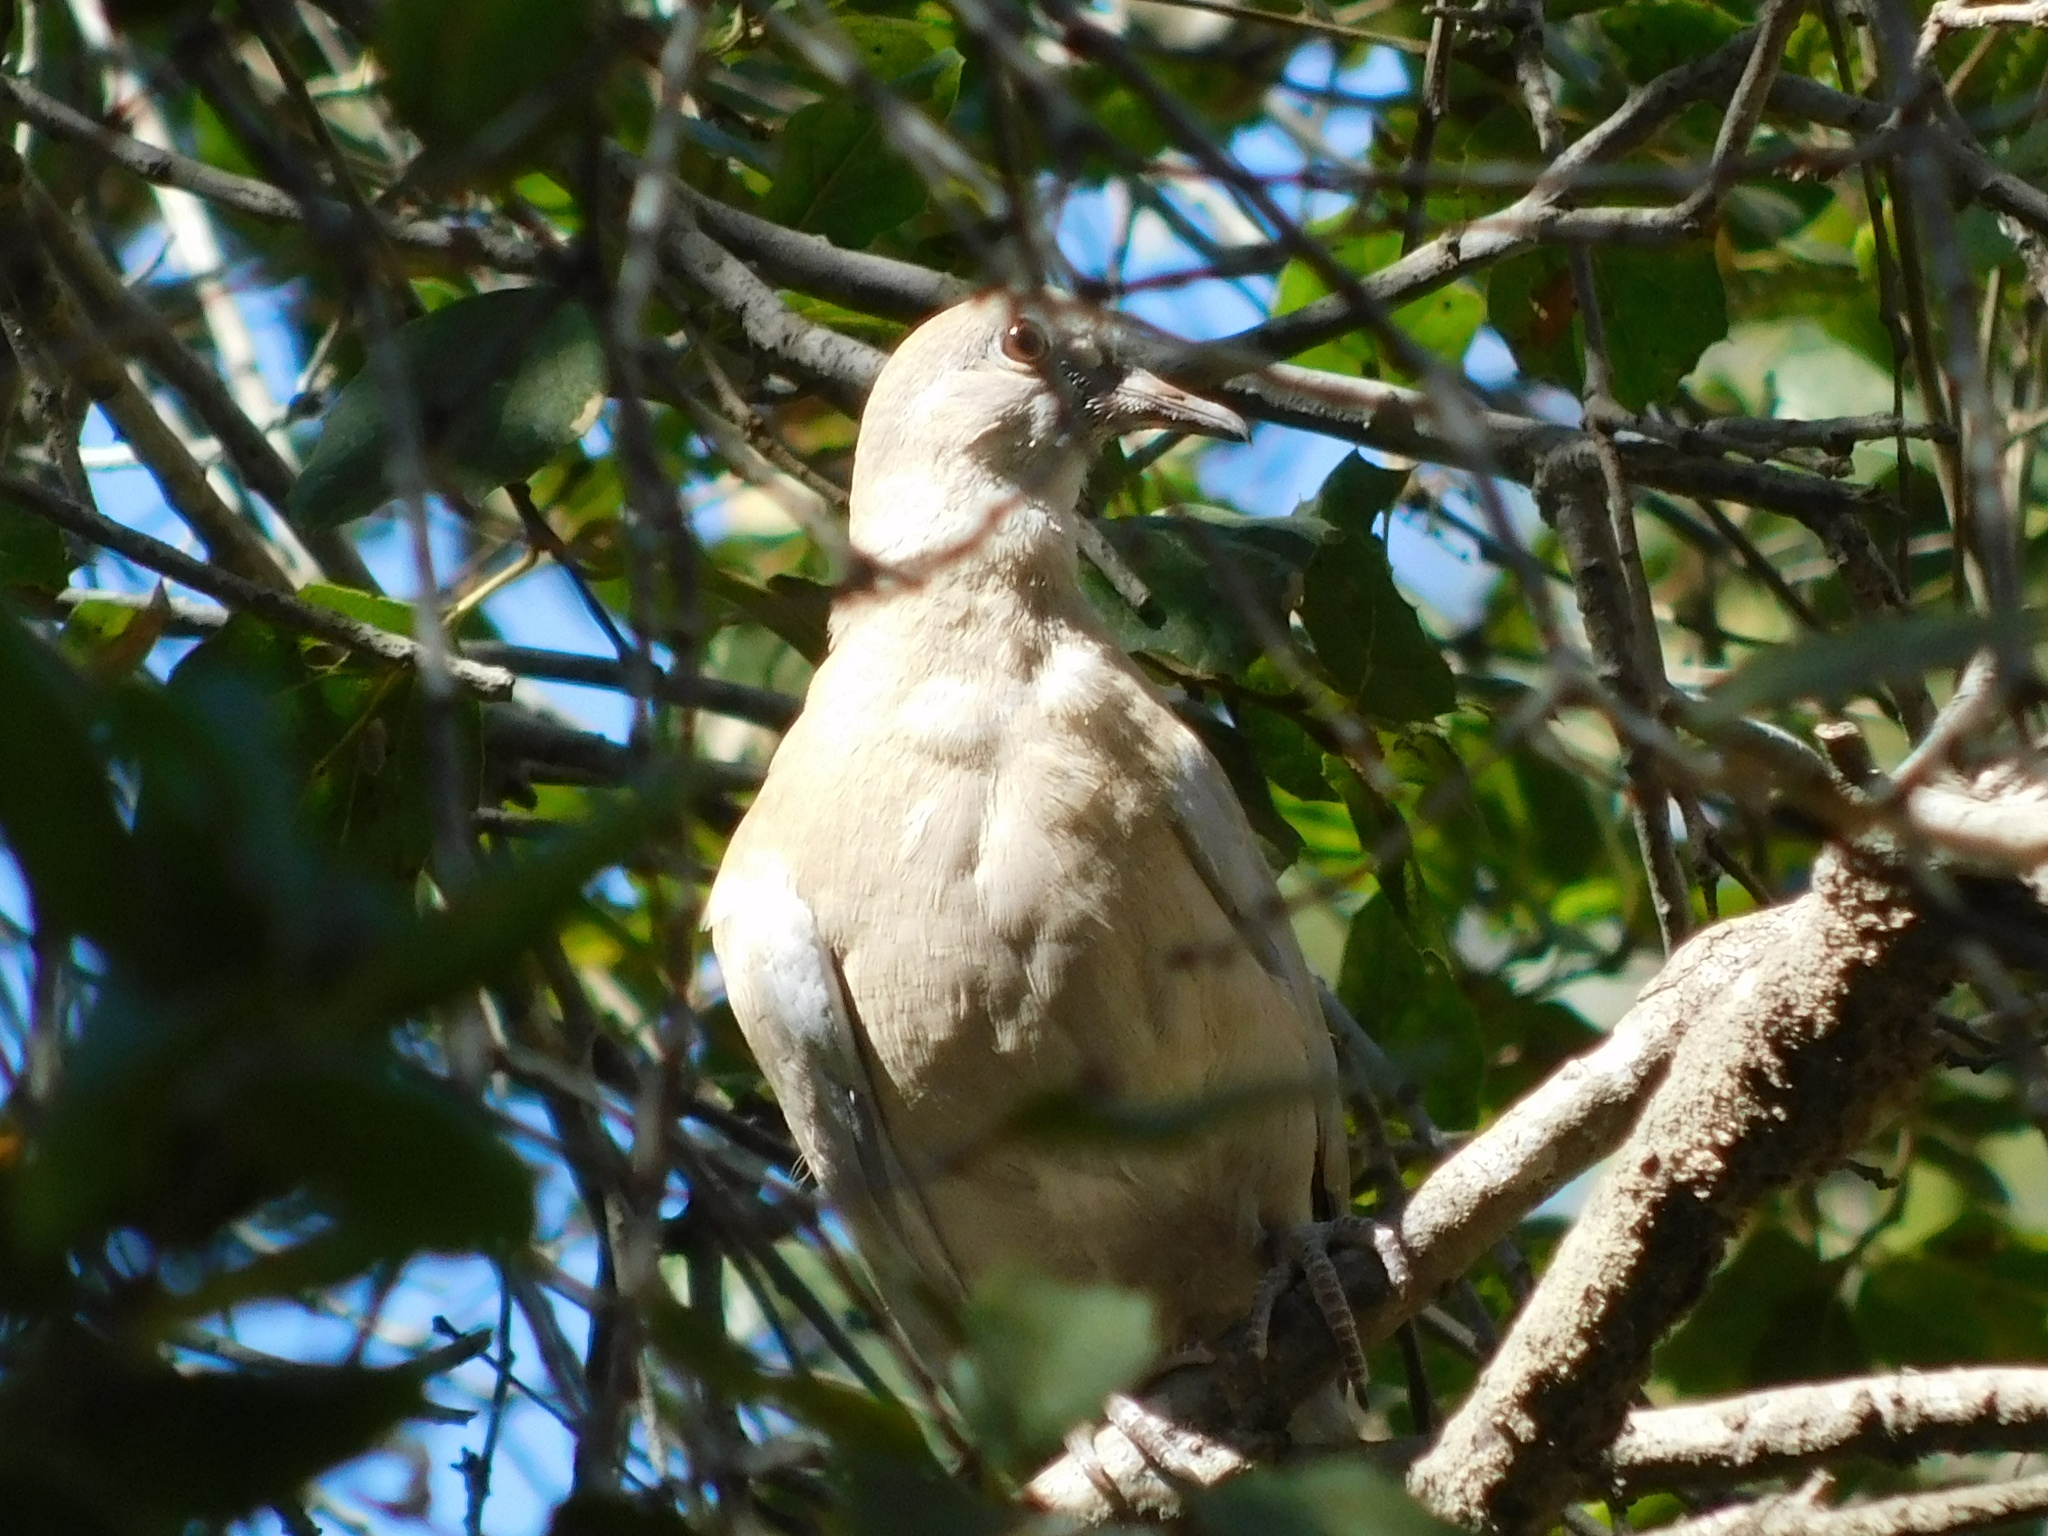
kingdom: Animalia
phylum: Chordata
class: Aves
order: Columbiformes
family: Columbidae
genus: Streptopelia
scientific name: Streptopelia decaocto
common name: Eurasian collared dove
